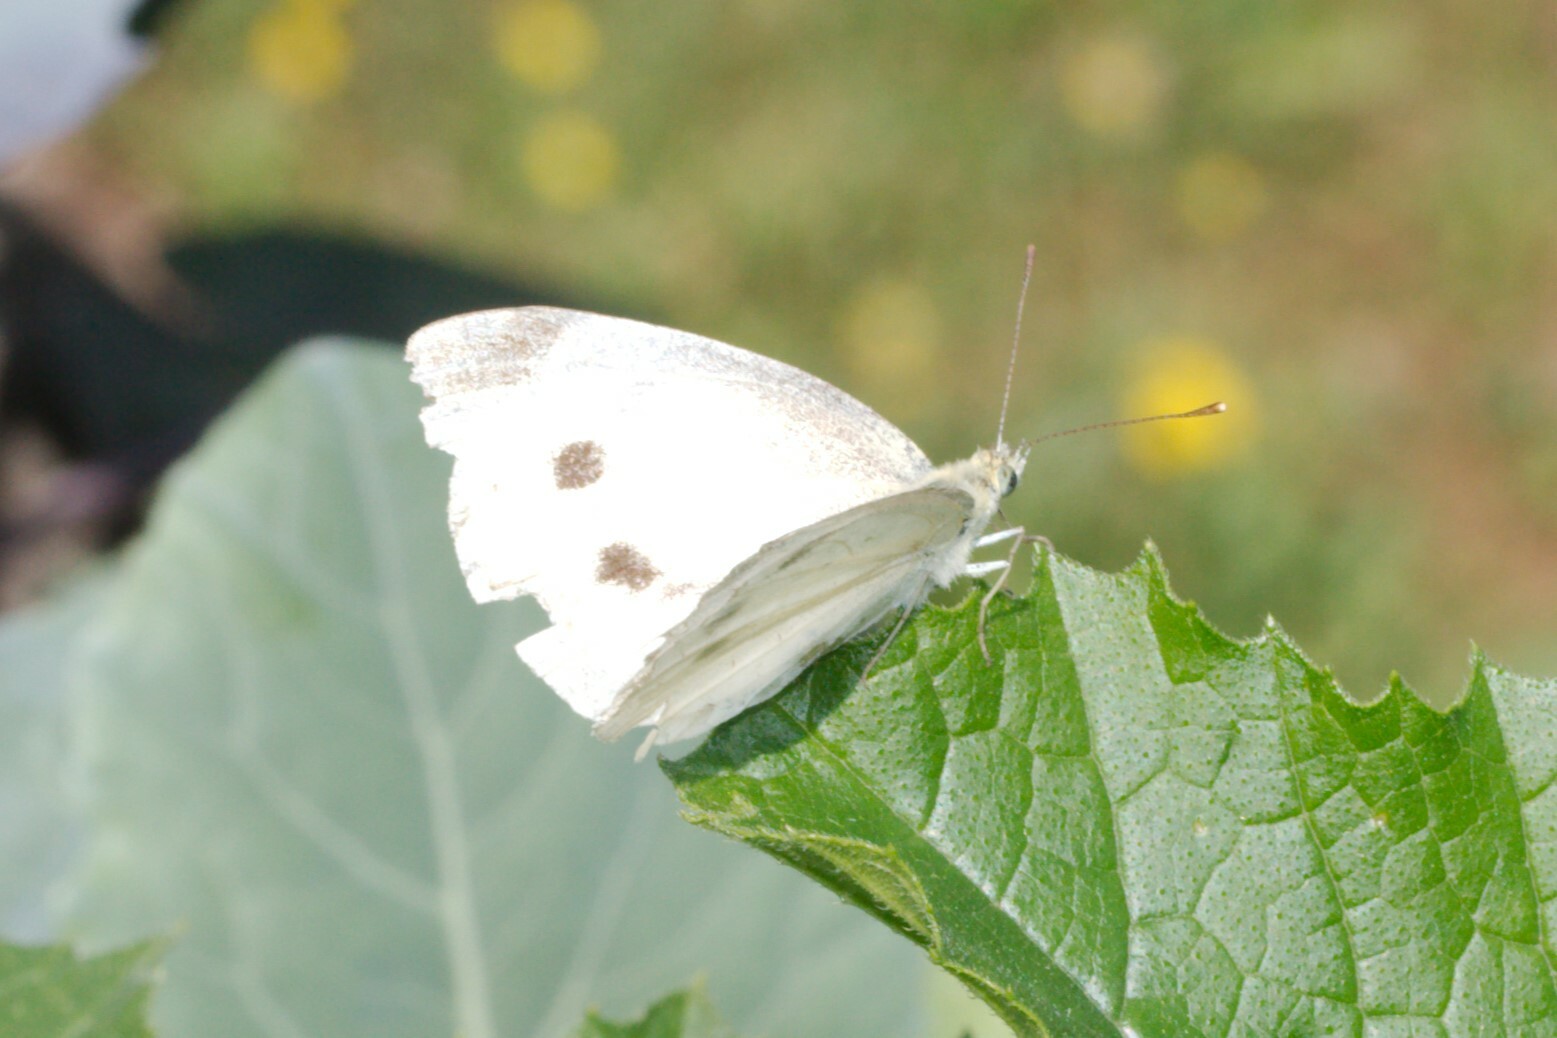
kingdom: Animalia
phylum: Arthropoda
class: Insecta
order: Lepidoptera
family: Pieridae
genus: Pieris
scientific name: Pieris rapae
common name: Small white
